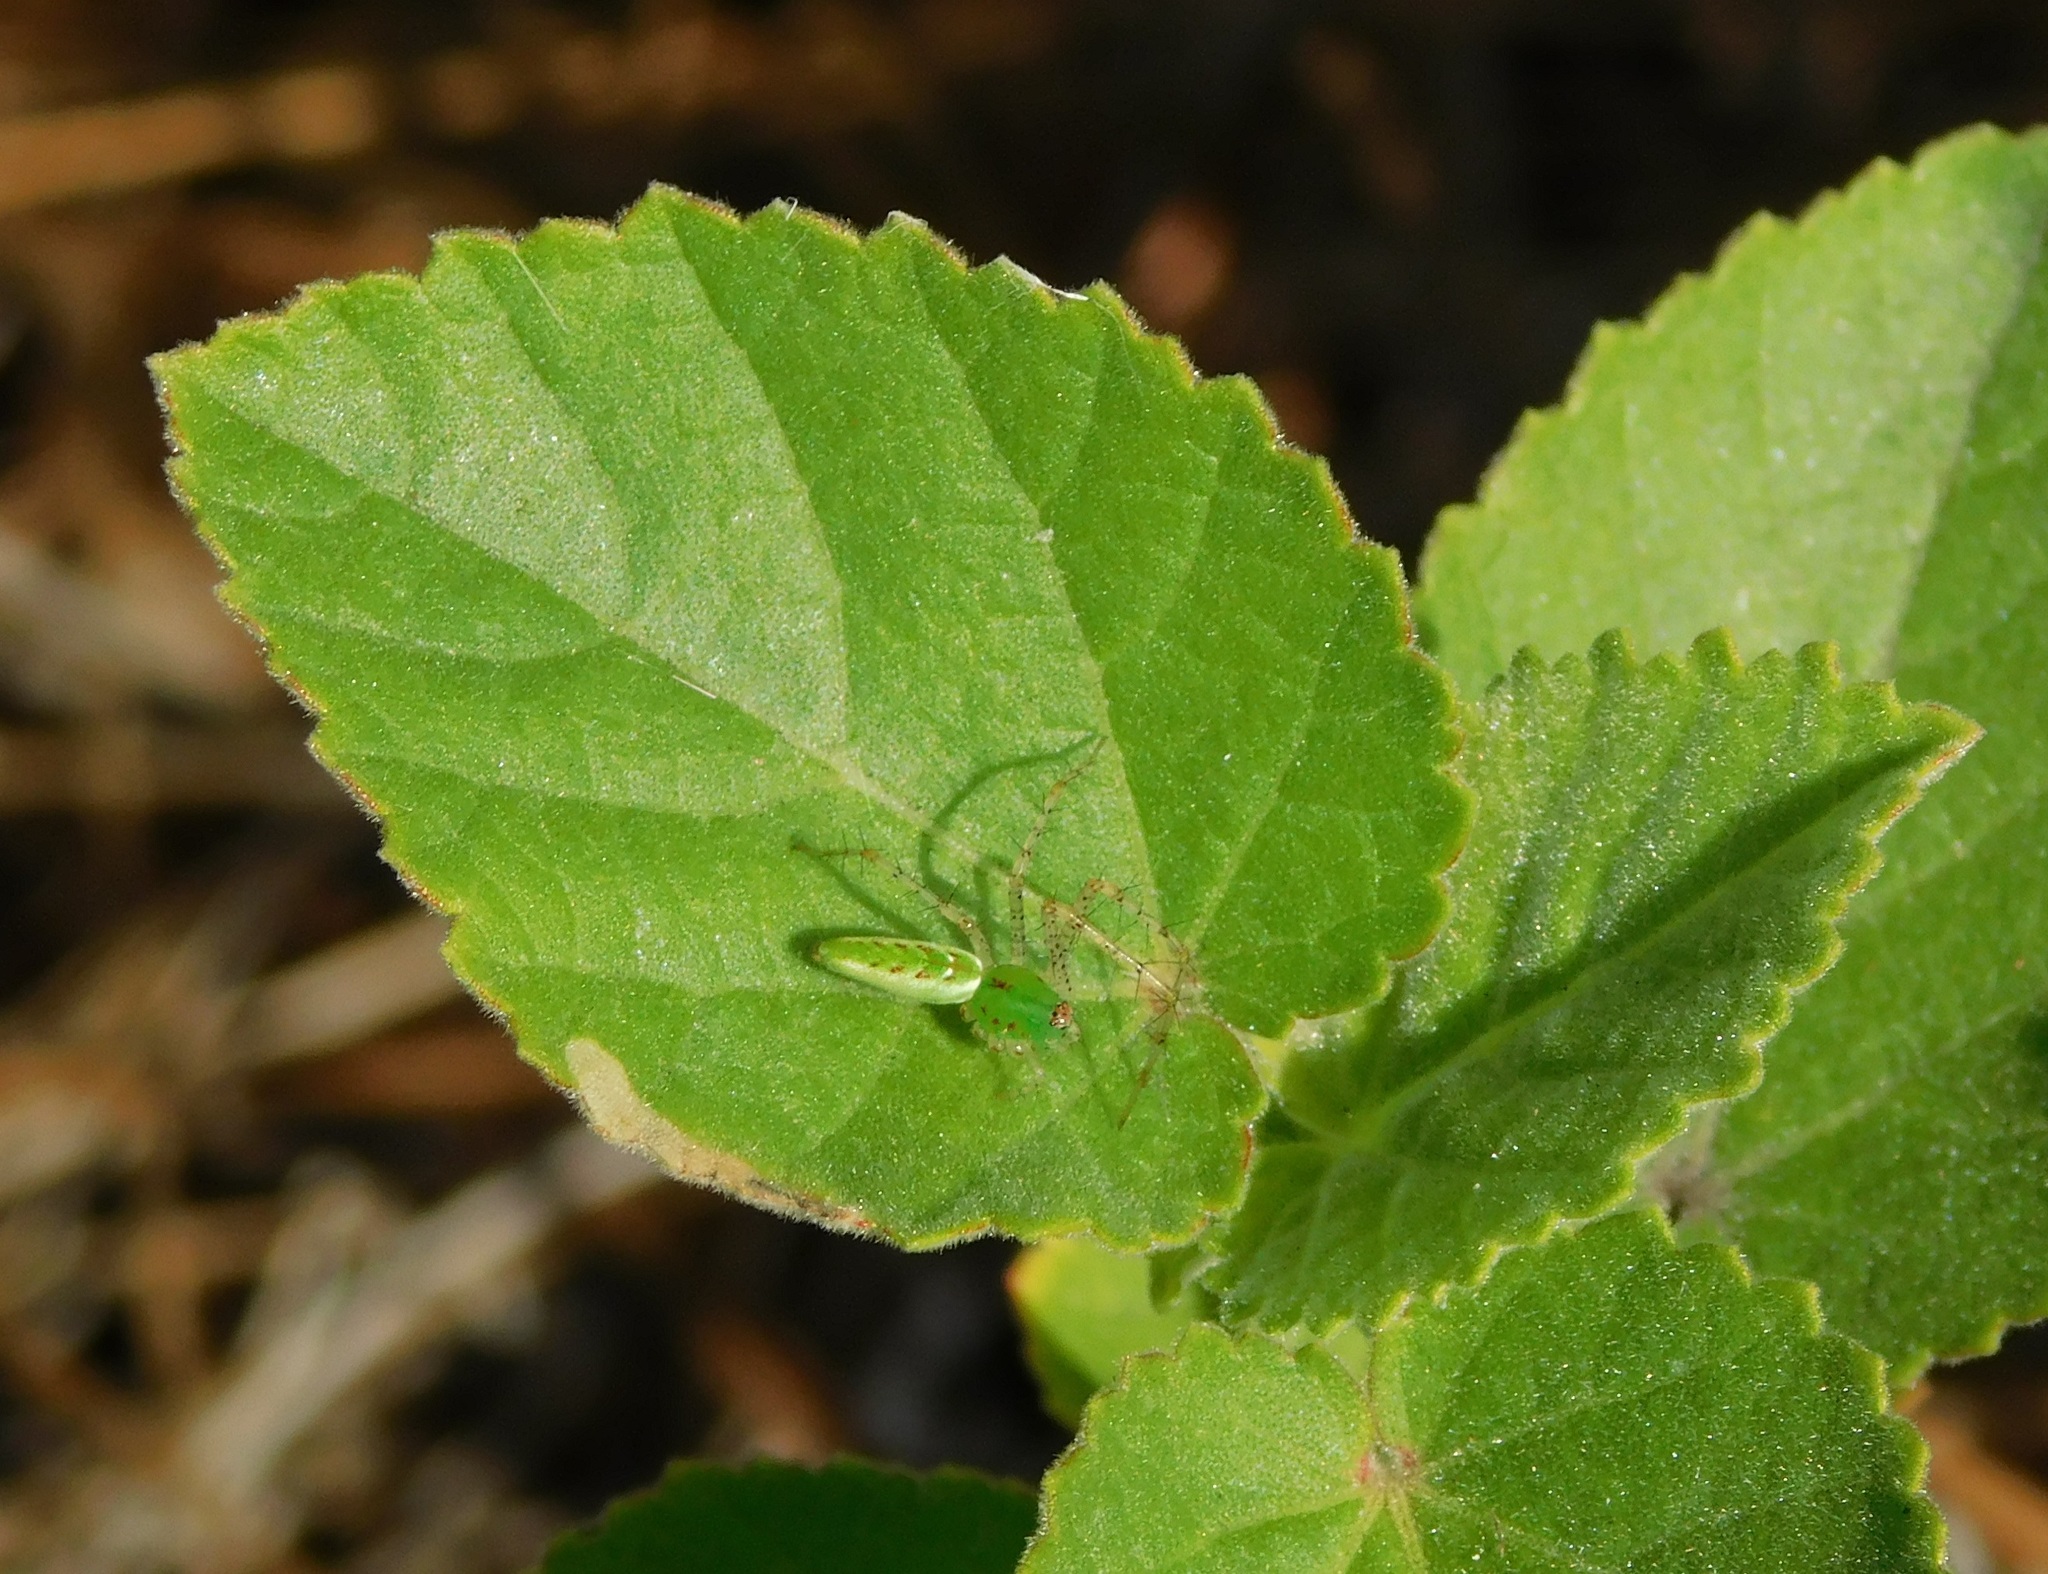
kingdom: Animalia
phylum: Arthropoda
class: Arachnida
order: Araneae
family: Oxyopidae
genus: Peucetia
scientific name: Peucetia viridans
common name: Lynx spiders
